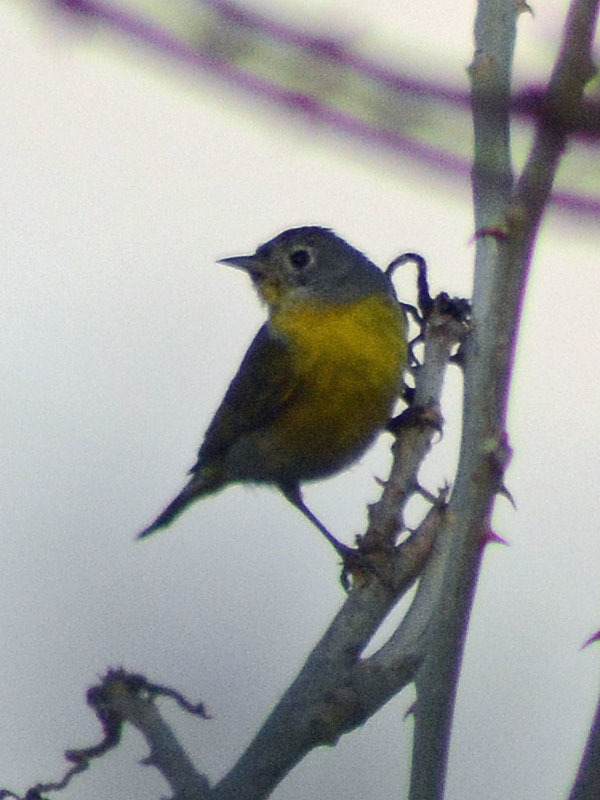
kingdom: Animalia
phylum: Chordata
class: Aves
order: Passeriformes
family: Parulidae
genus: Leiothlypis
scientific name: Leiothlypis ruficapilla
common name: Nashville warbler
